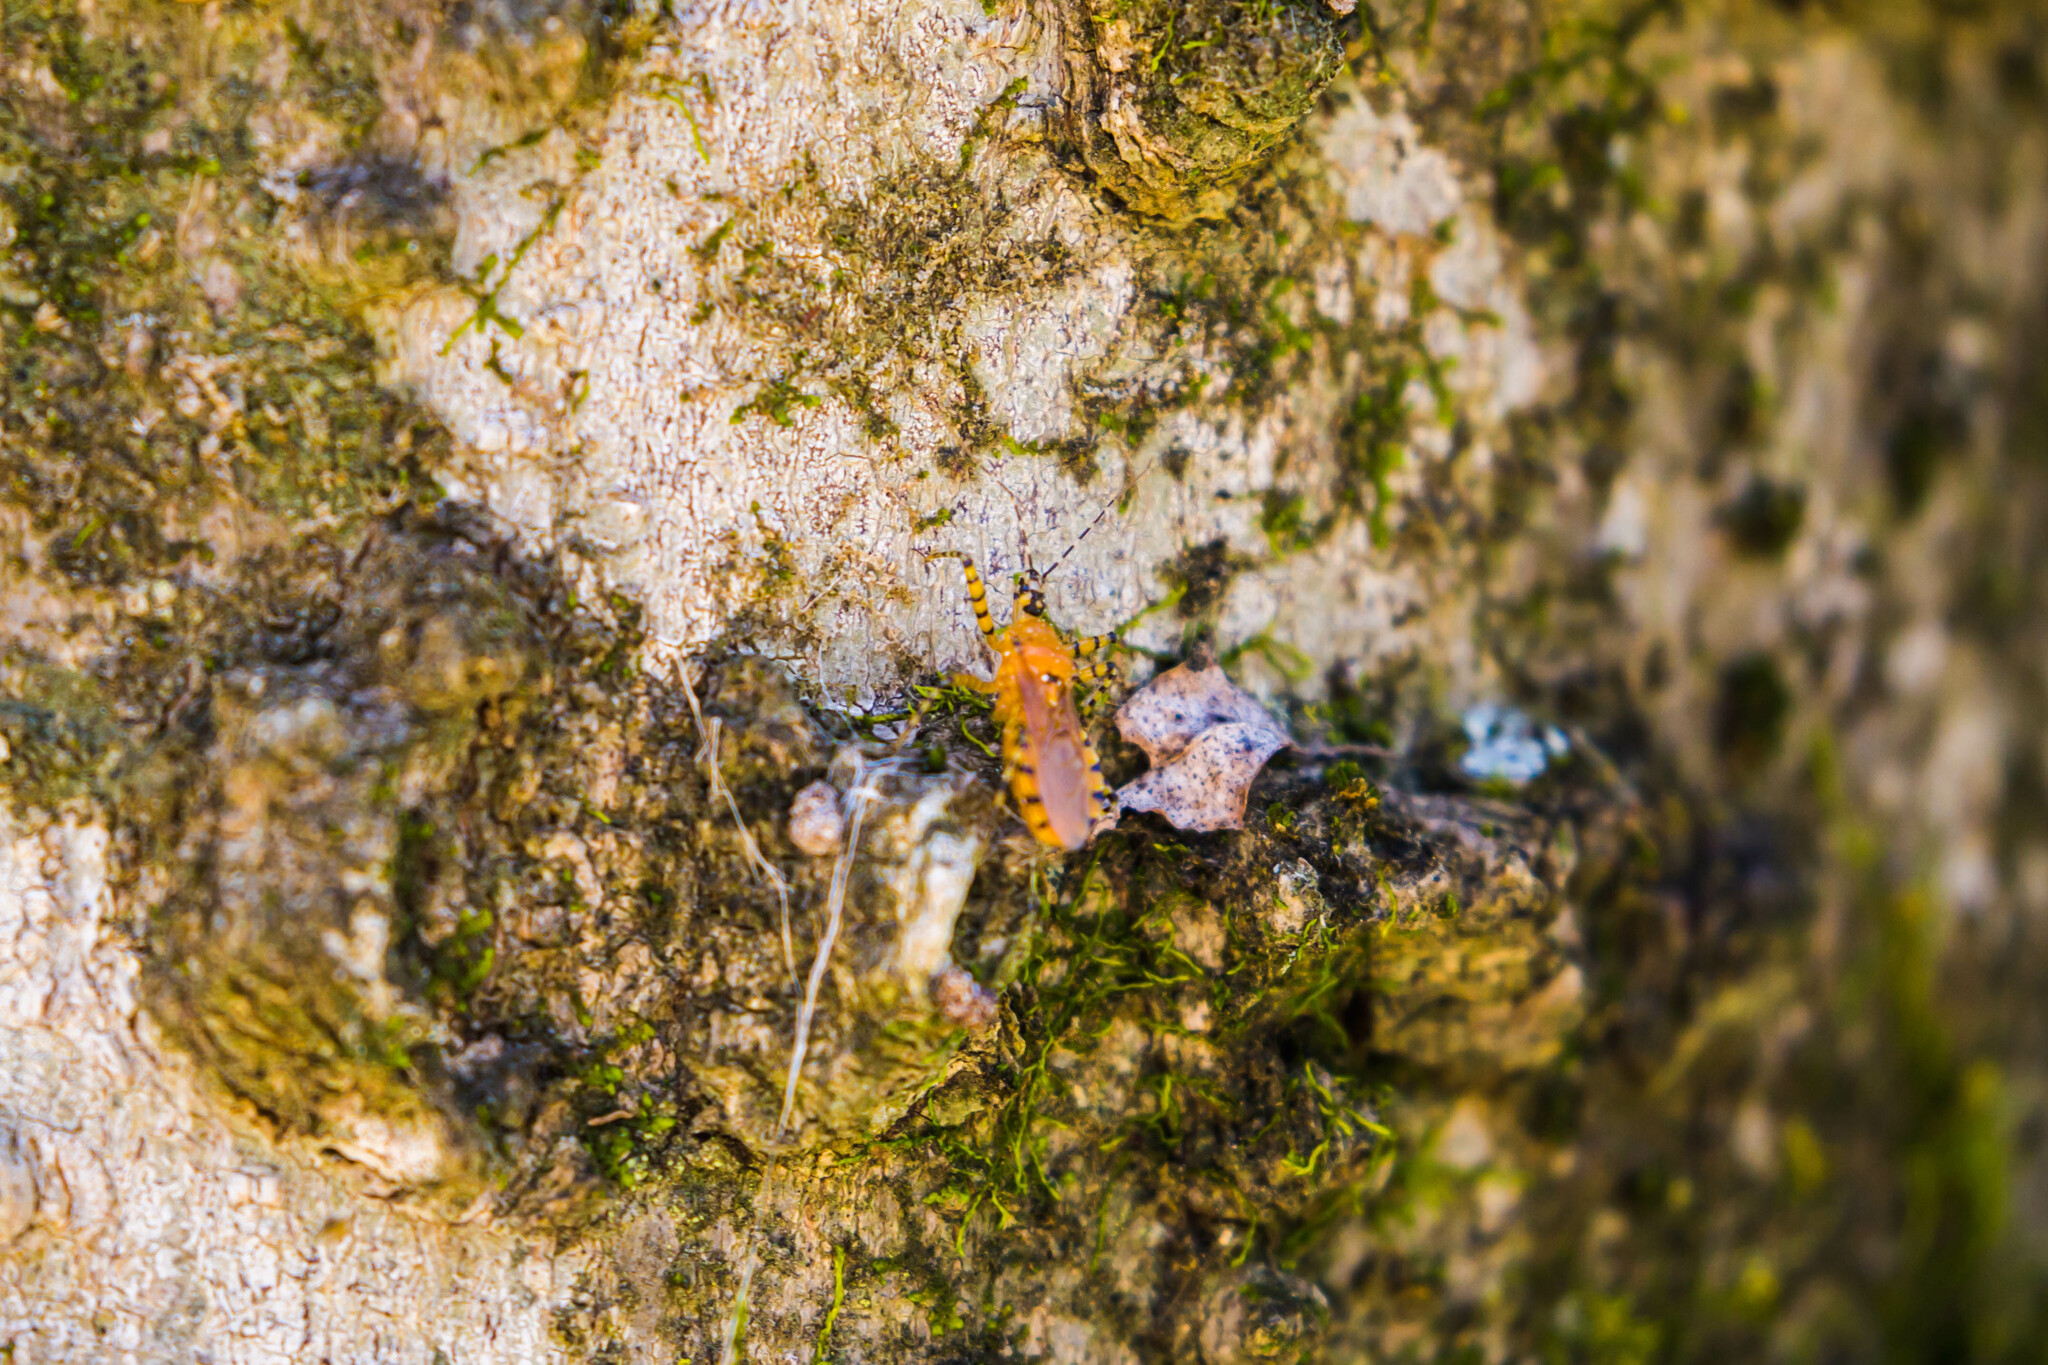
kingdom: Animalia
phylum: Arthropoda
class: Insecta
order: Hemiptera
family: Reduviidae
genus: Pselliopus
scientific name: Pselliopus barberi
